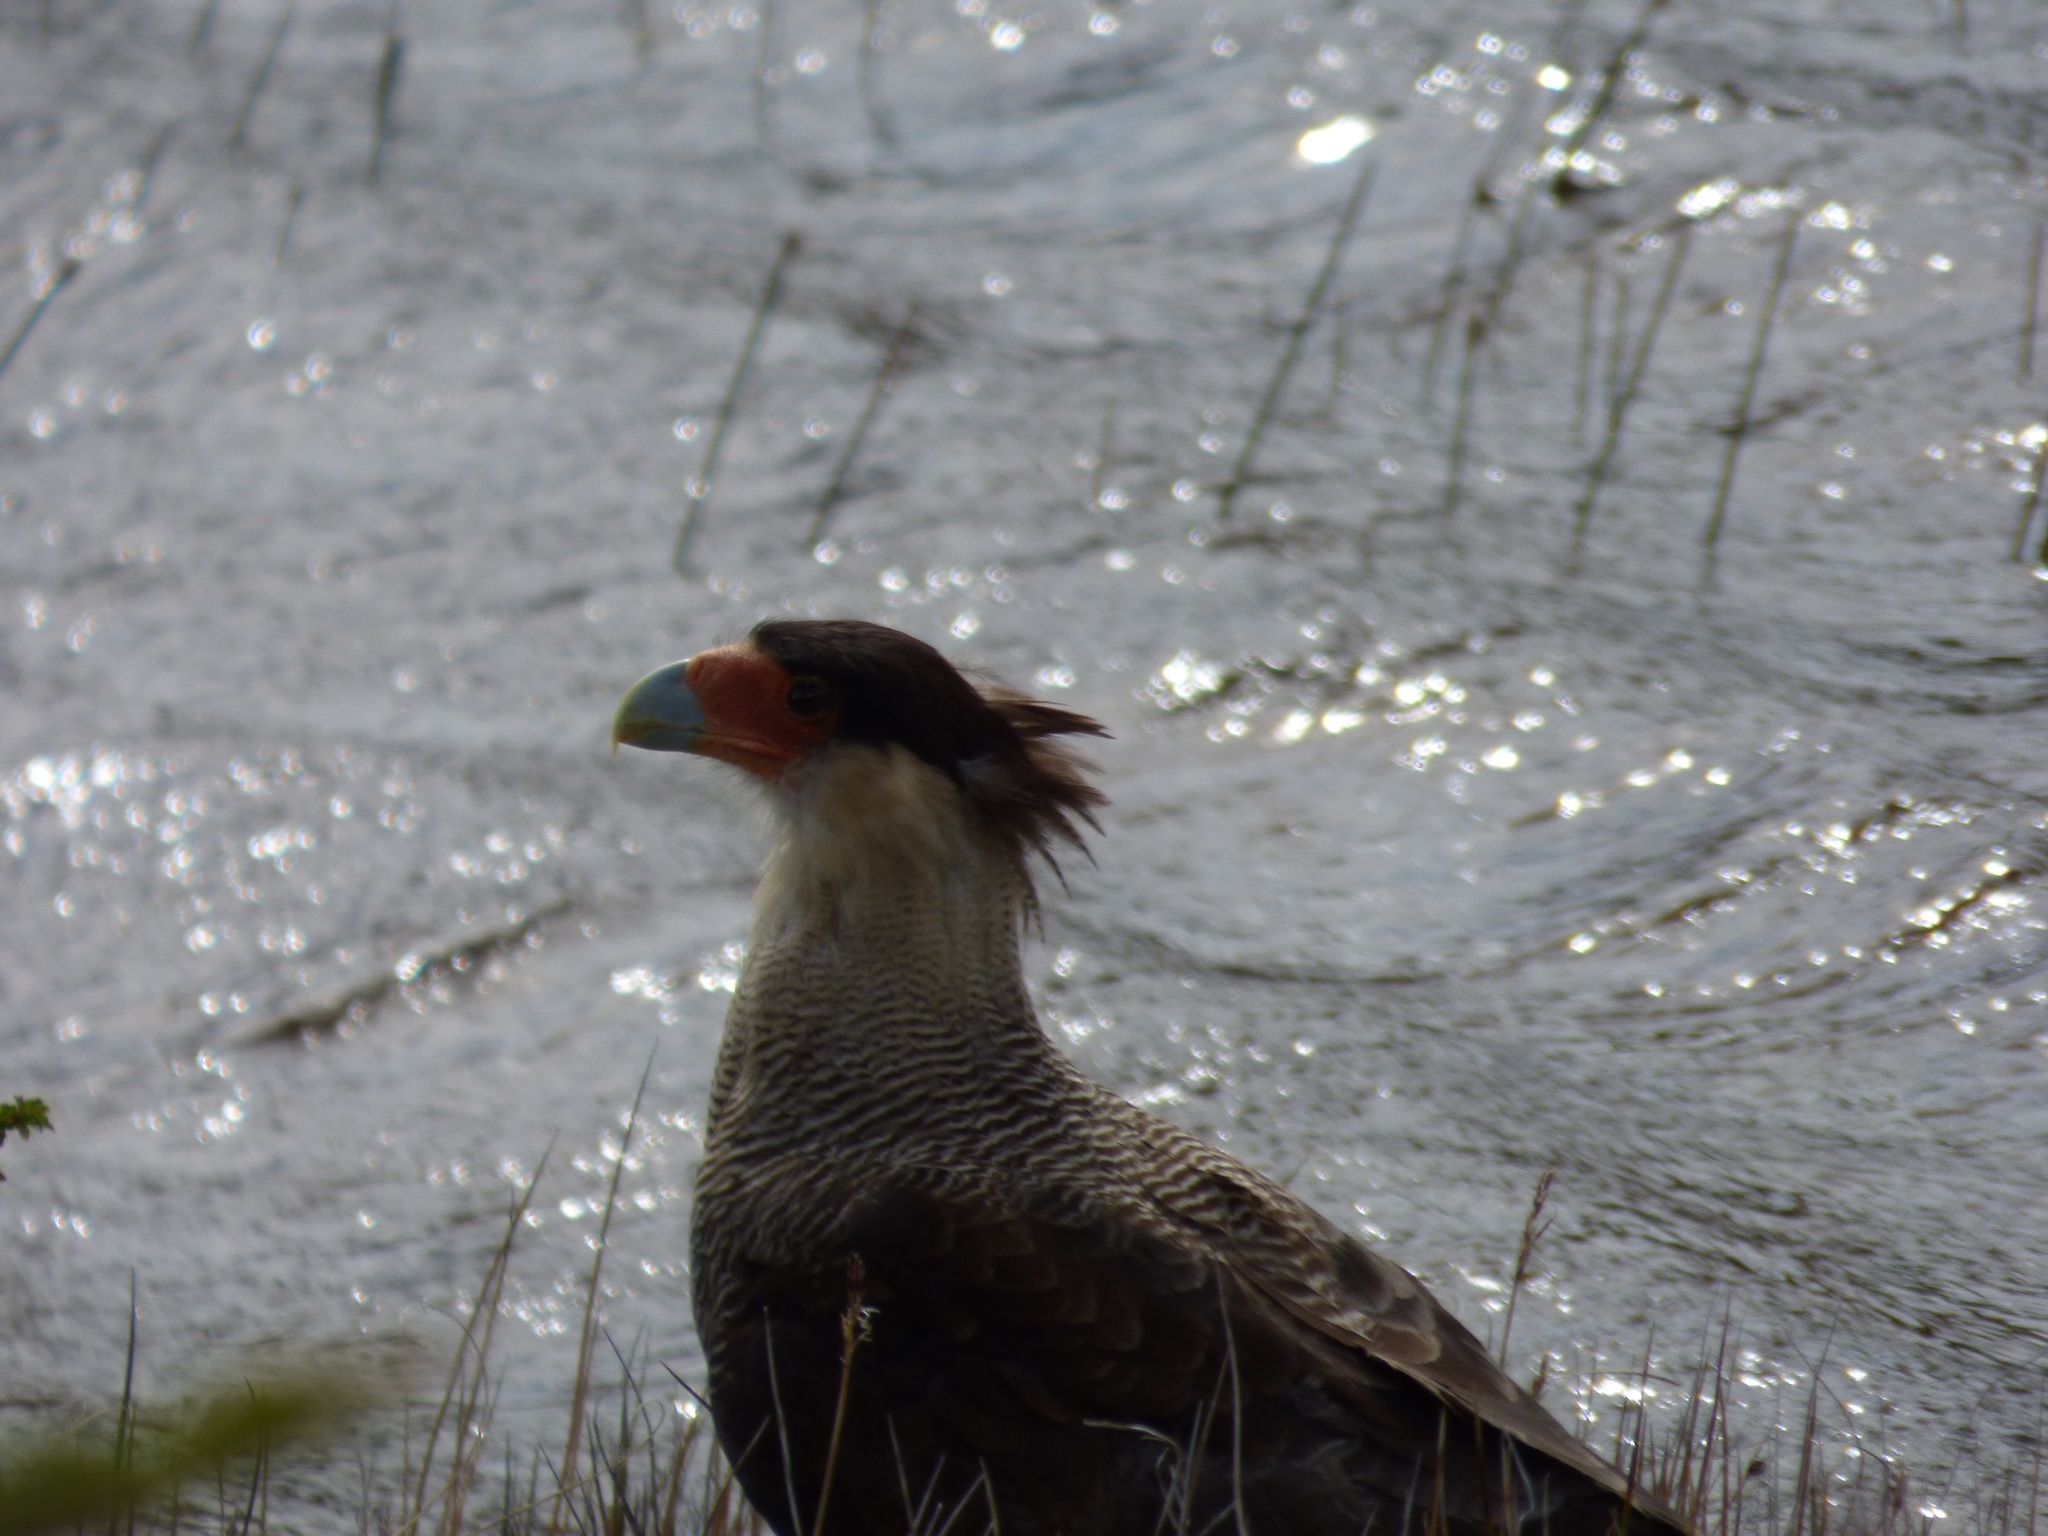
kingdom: Animalia
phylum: Chordata
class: Aves
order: Falconiformes
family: Falconidae
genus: Caracara
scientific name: Caracara plancus
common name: Southern caracara
